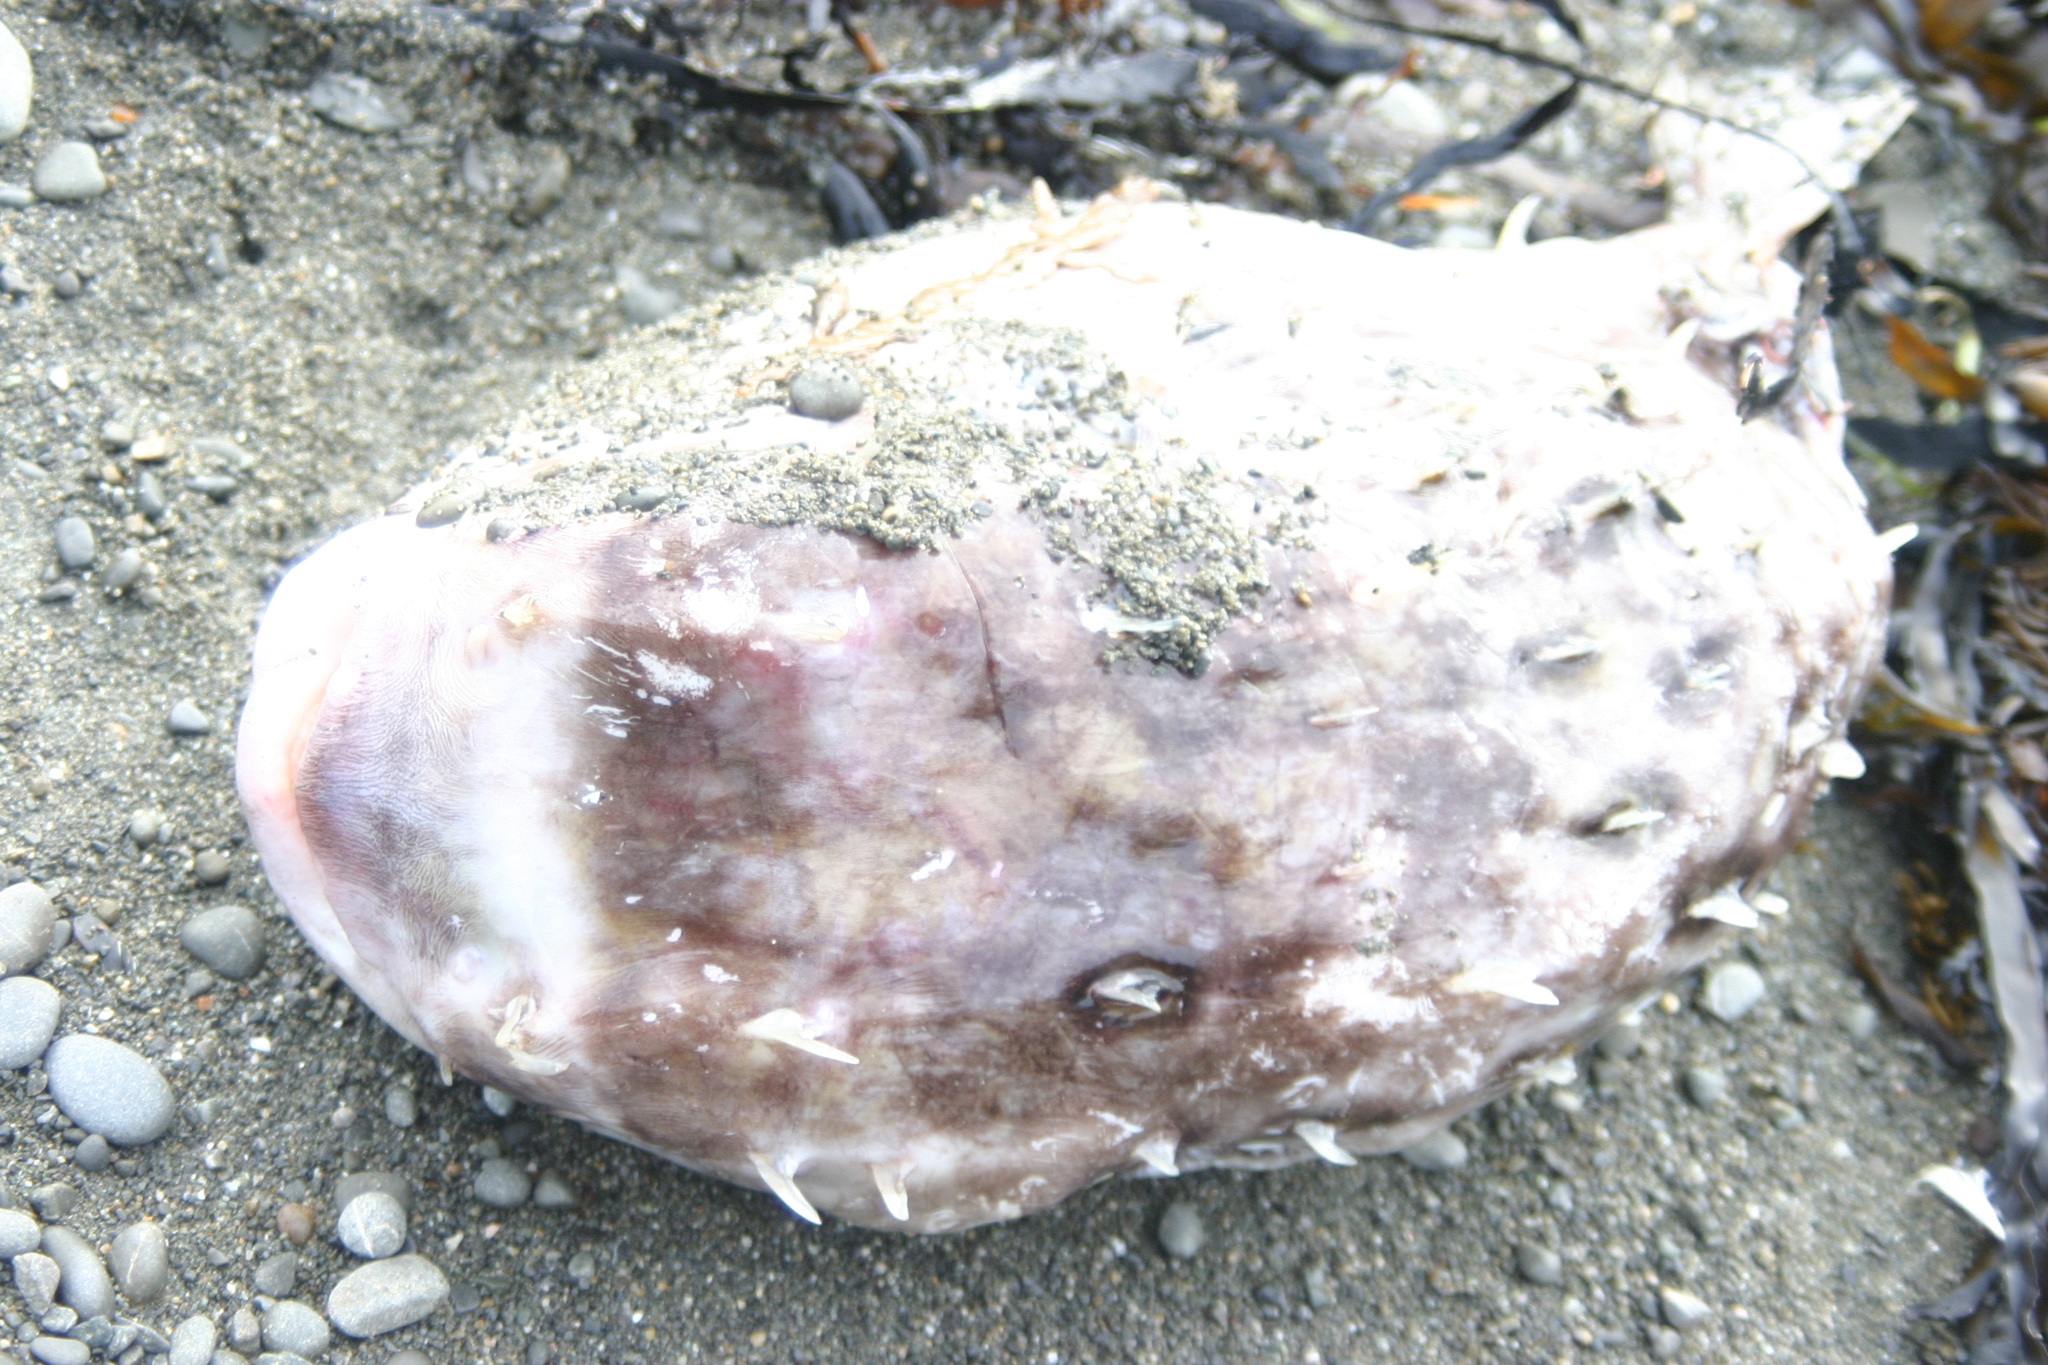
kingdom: Animalia
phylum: Chordata
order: Tetraodontiformes
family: Diodontidae
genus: Allomycterus
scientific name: Allomycterus pilatus
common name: No common name
